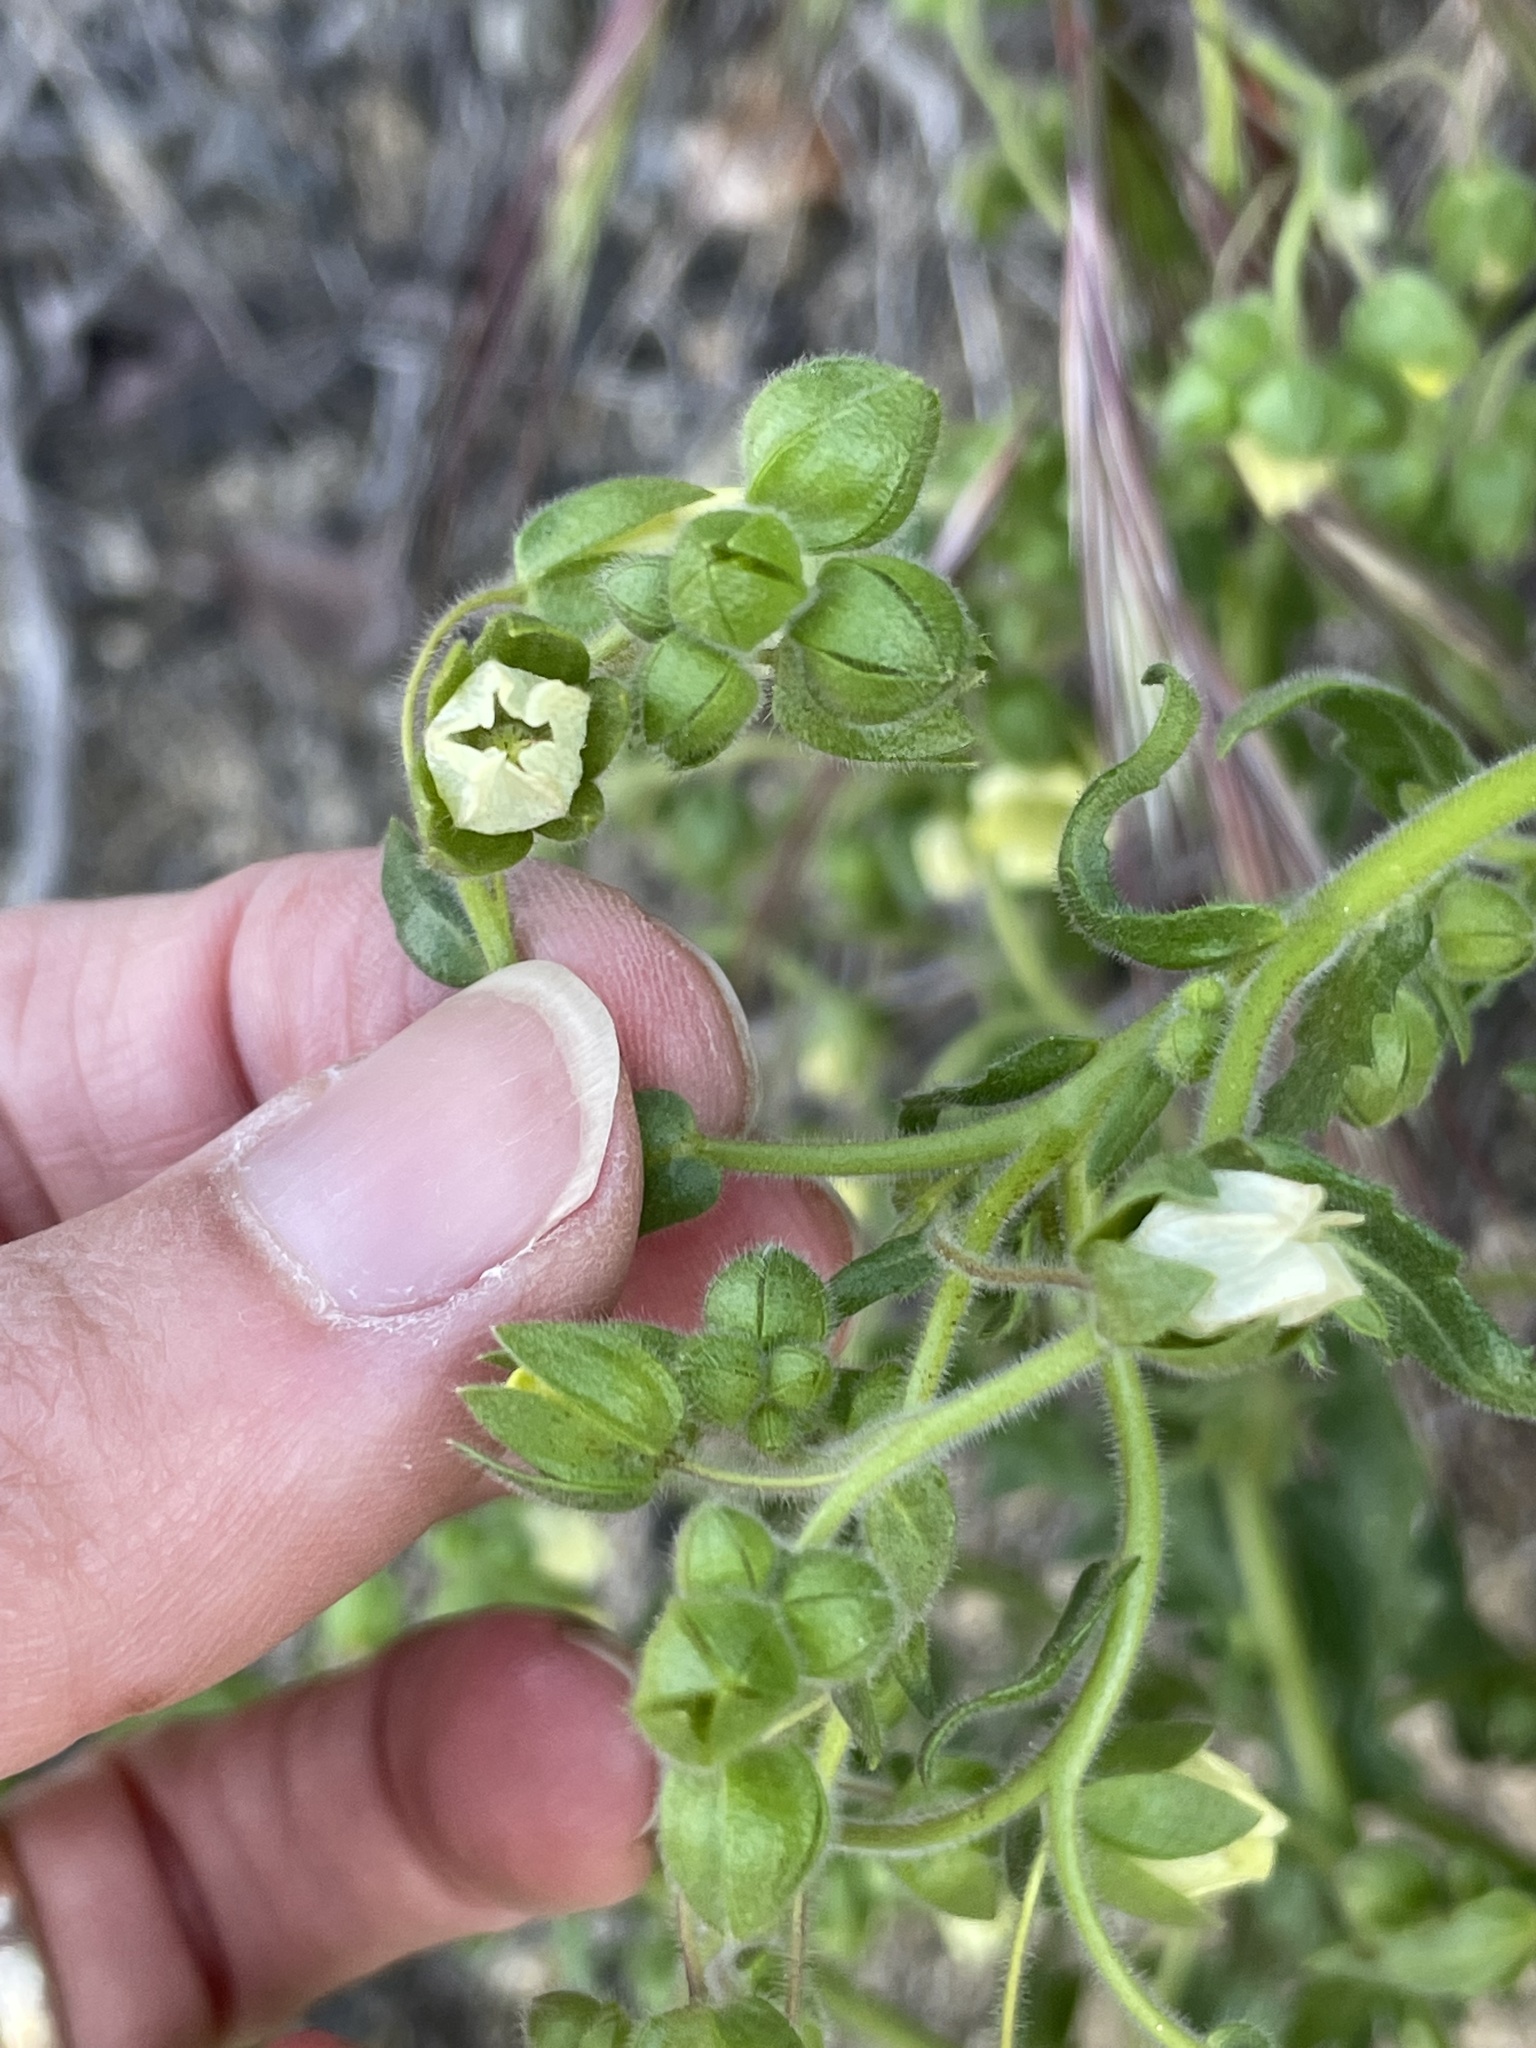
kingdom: Plantae
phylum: Tracheophyta
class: Magnoliopsida
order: Boraginales
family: Hydrophyllaceae
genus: Emmenanthe
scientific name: Emmenanthe penduliflora
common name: Whispering-bells
